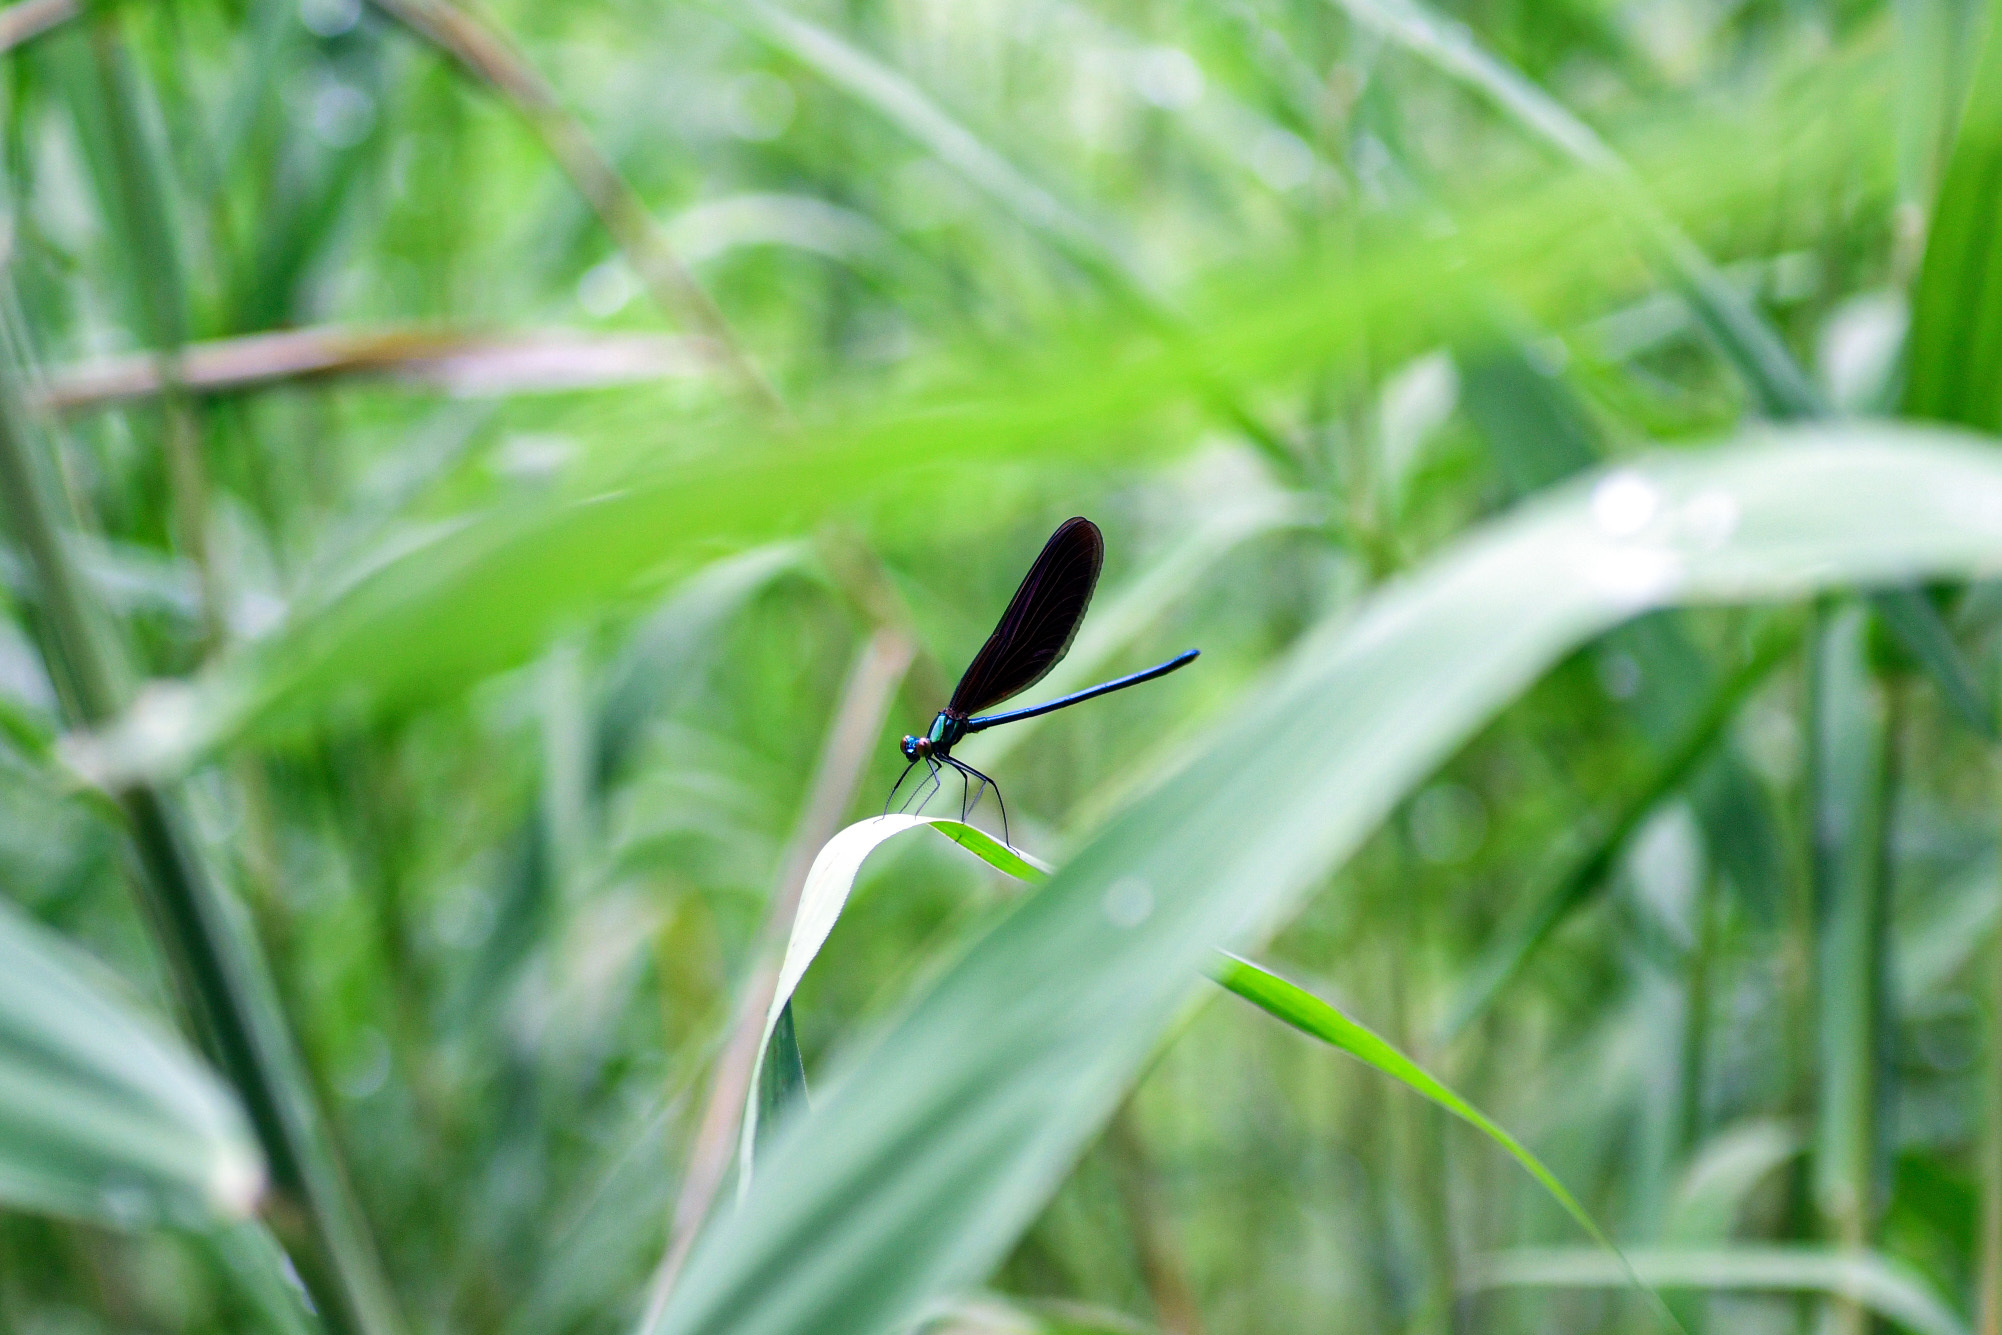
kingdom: Animalia
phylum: Arthropoda
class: Insecta
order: Odonata
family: Calopterygidae
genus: Matrona
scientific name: Matrona basilaris
